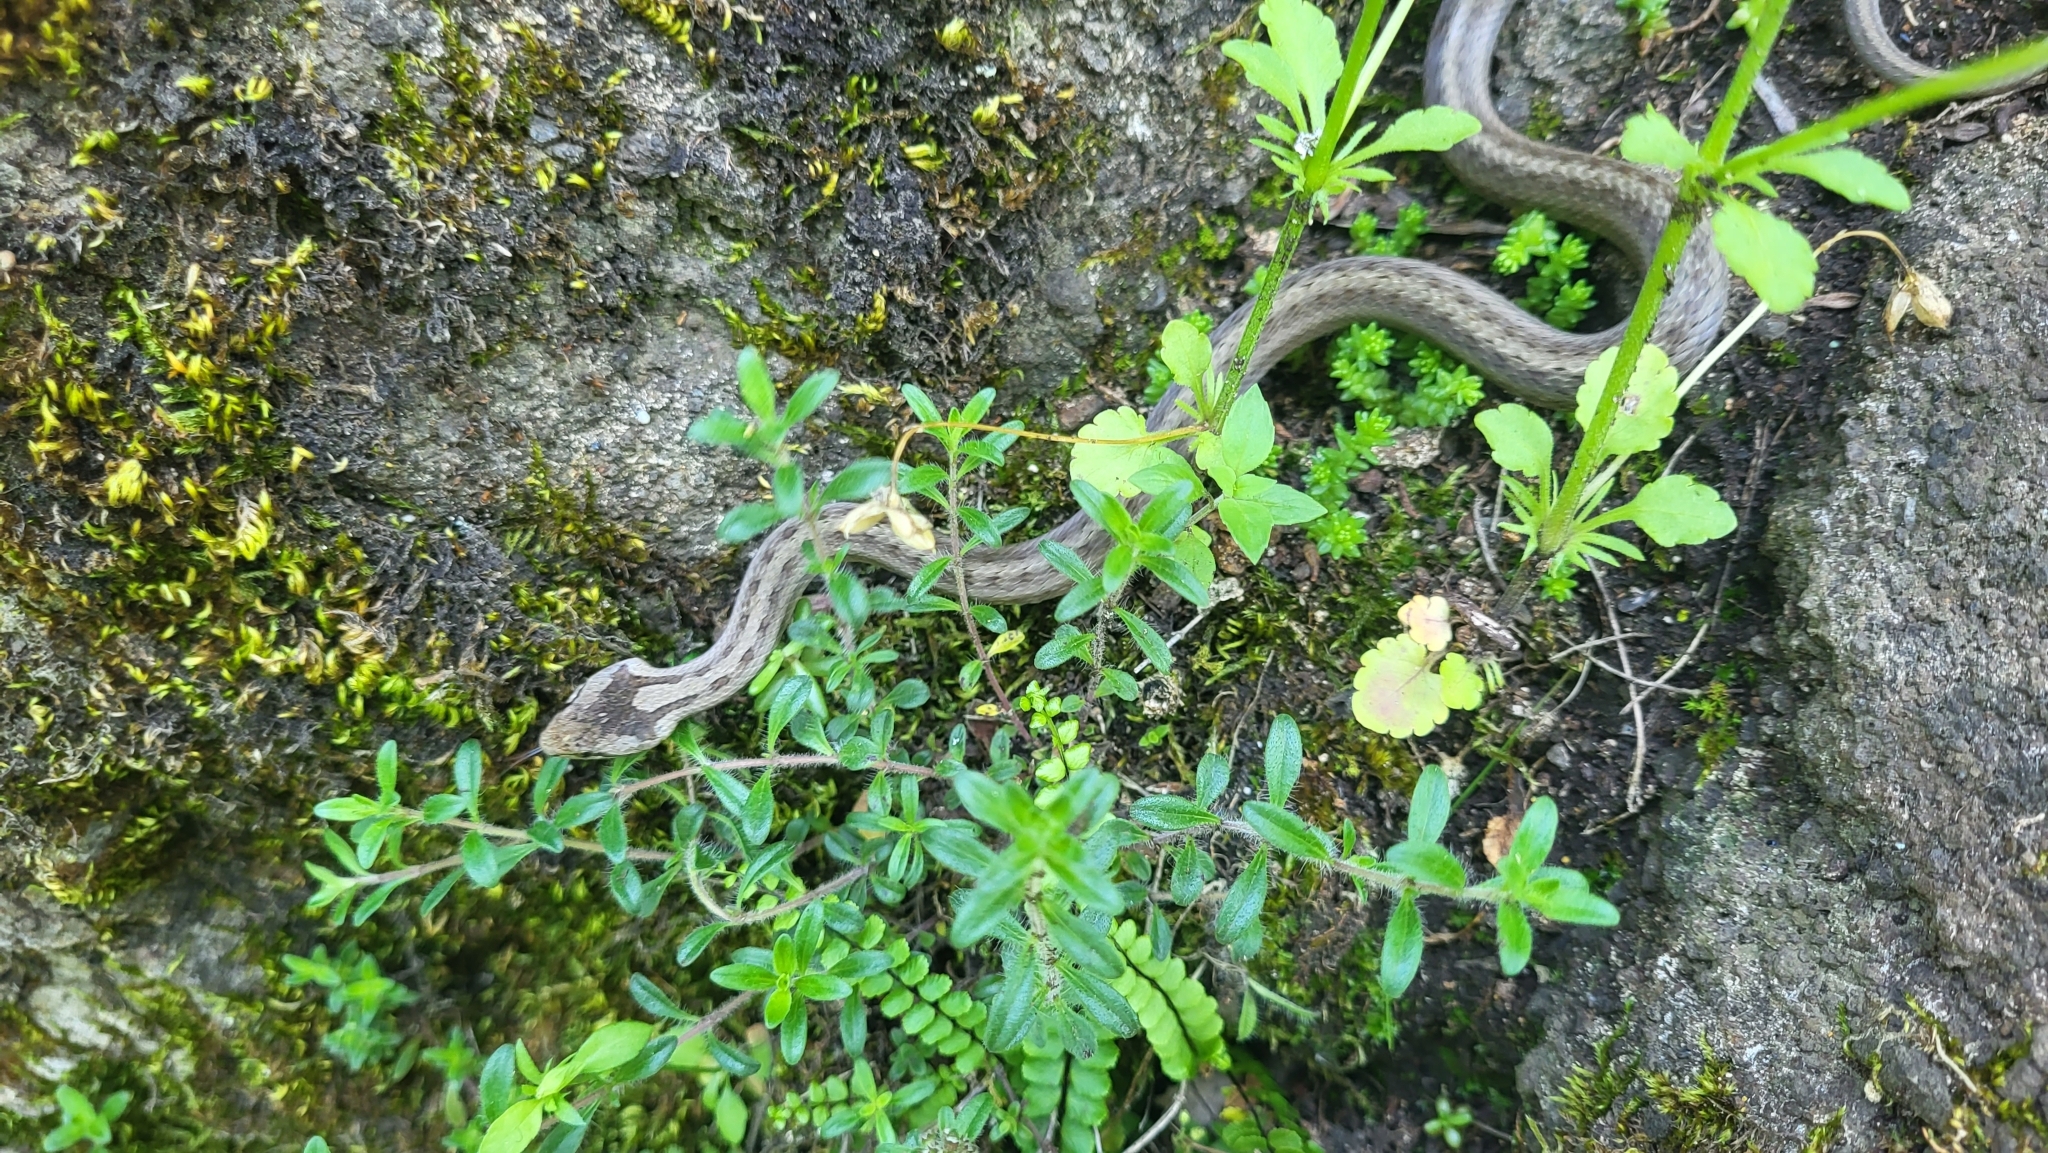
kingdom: Animalia
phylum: Chordata
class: Squamata
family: Colubridae
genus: Coronella
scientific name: Coronella austriaca
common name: Smooth snake
